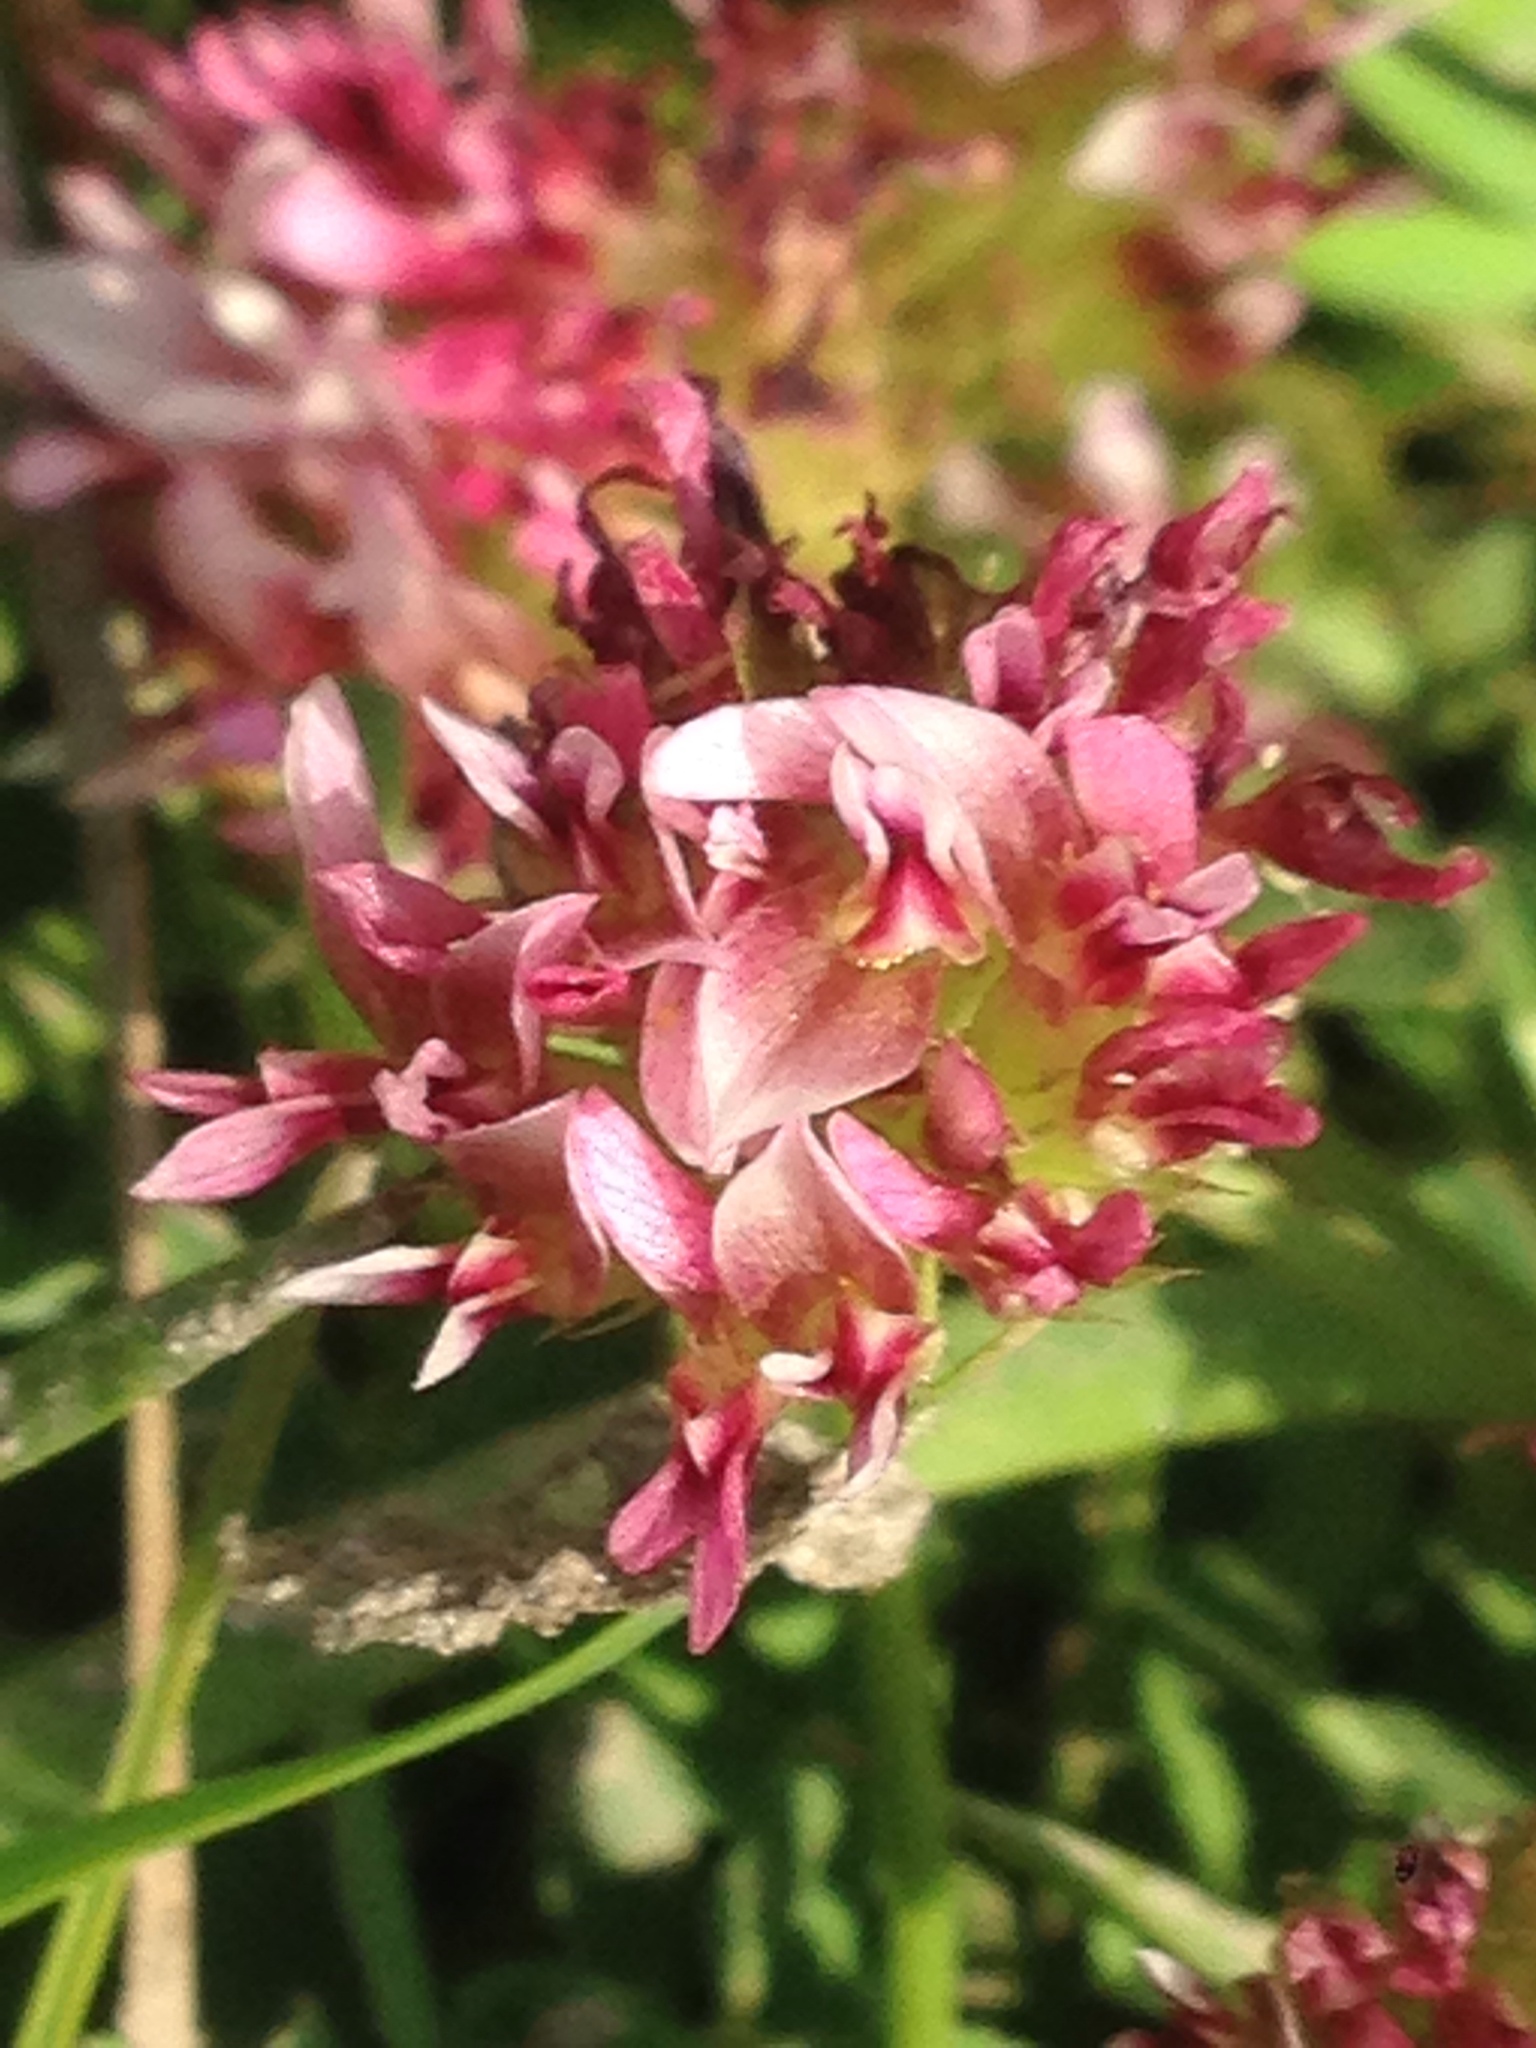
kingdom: Plantae
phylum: Tracheophyta
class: Magnoliopsida
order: Fabales
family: Fabaceae
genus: Trifolium
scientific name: Trifolium wormskioldii
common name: Springbank clover
